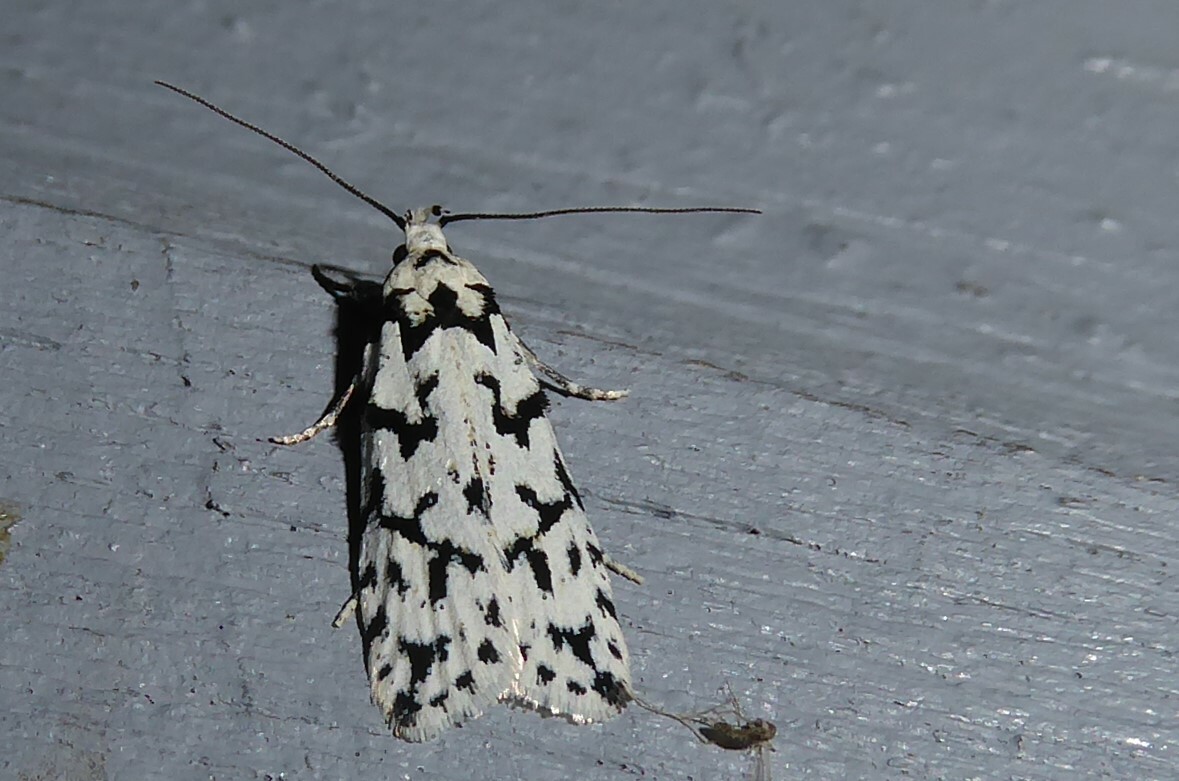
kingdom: Animalia
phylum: Arthropoda
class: Insecta
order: Lepidoptera
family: Oecophoridae
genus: Izatha
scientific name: Izatha katadiktya
